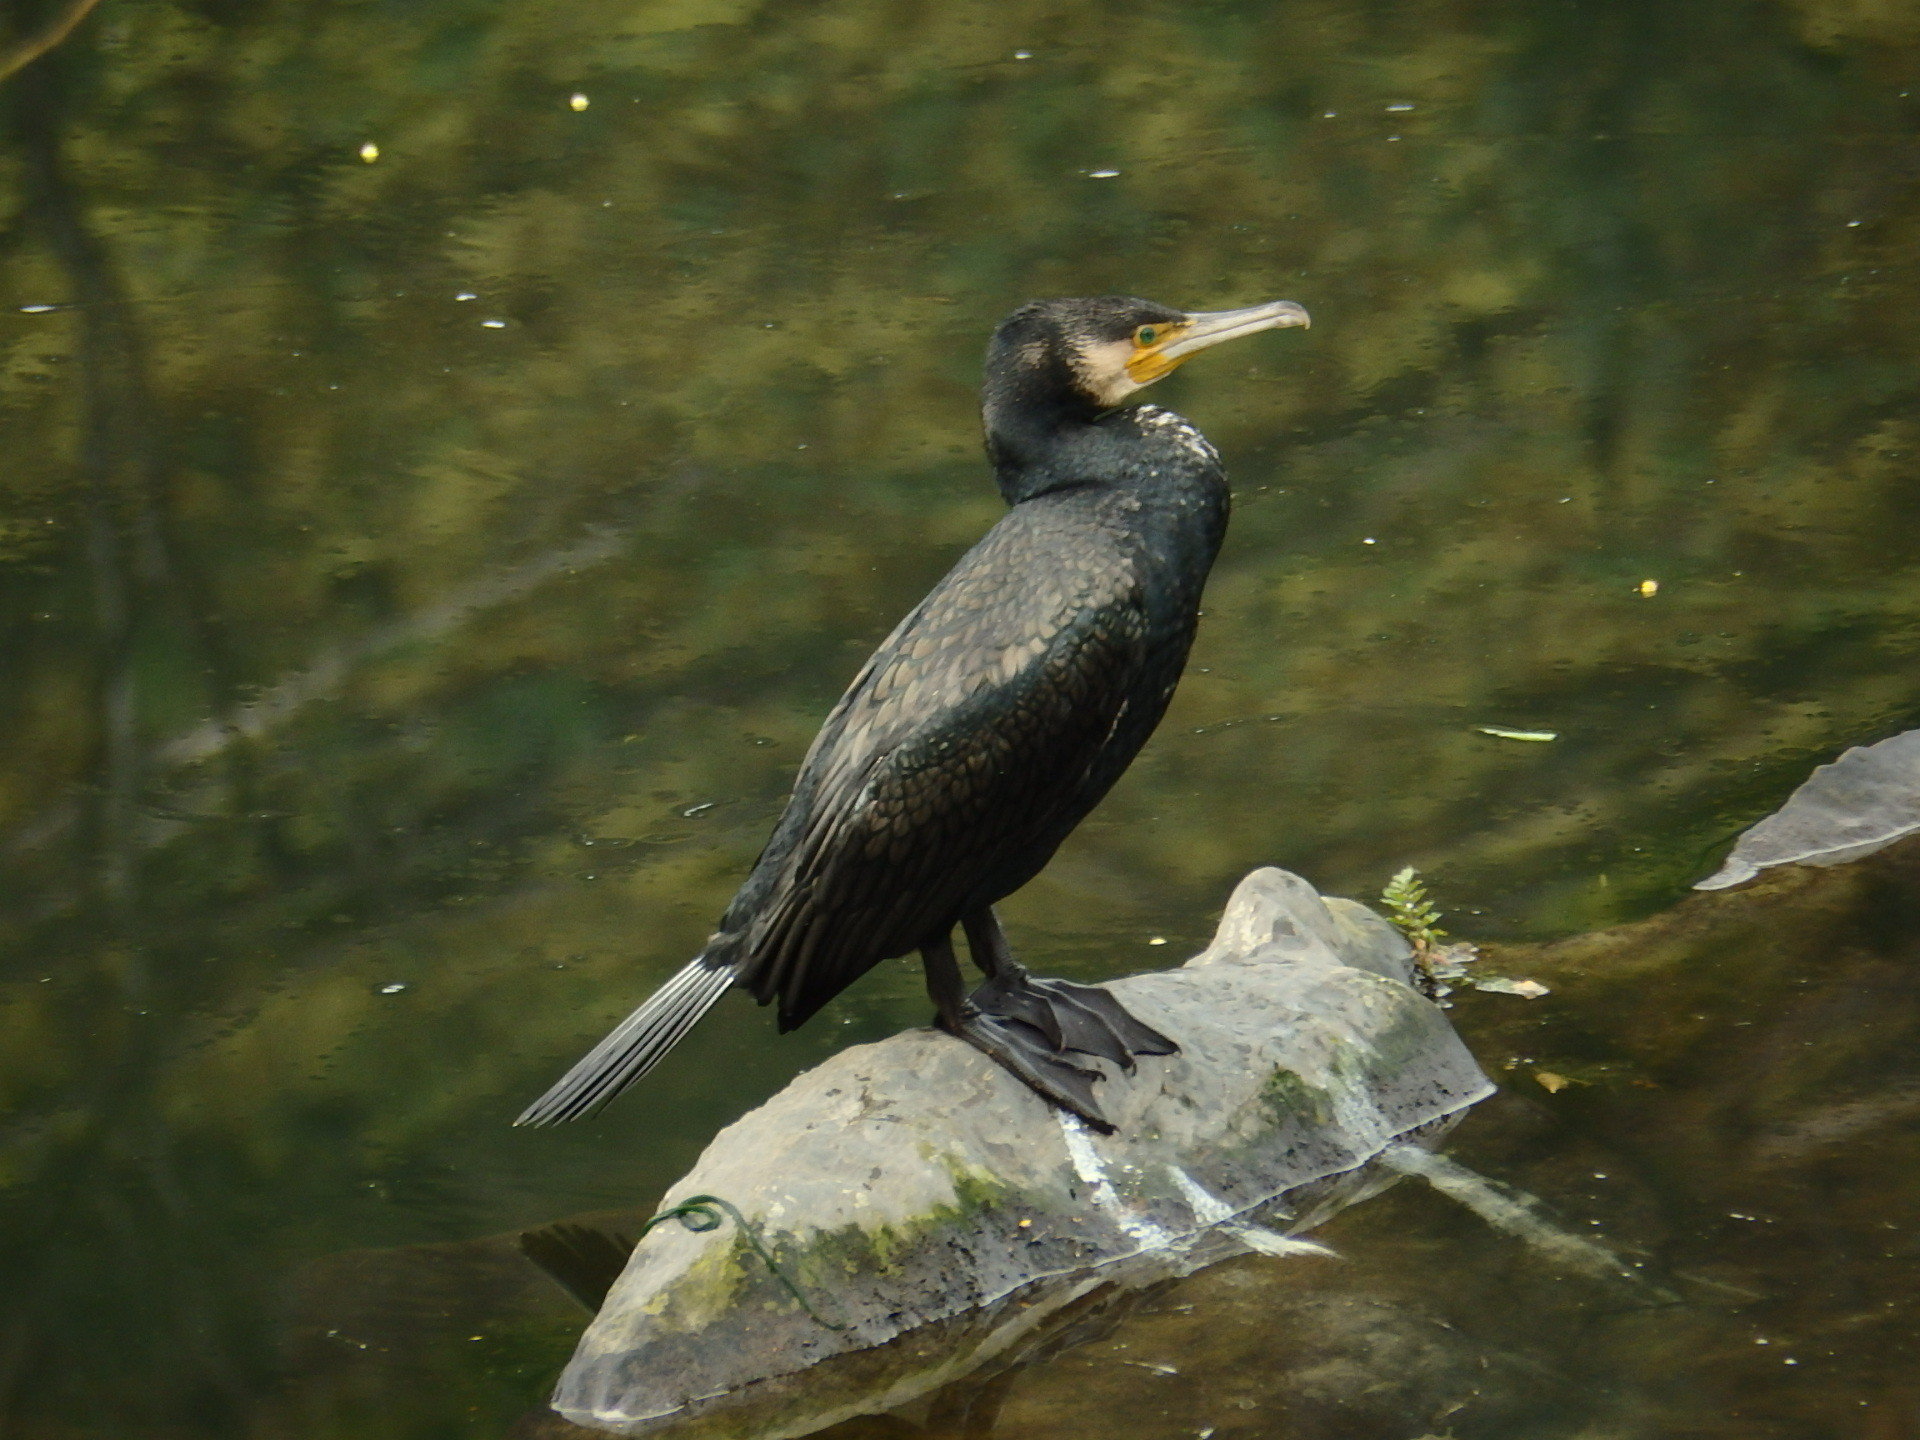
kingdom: Animalia
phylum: Chordata
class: Aves
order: Suliformes
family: Phalacrocoracidae
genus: Phalacrocorax
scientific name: Phalacrocorax carbo
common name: Great cormorant
